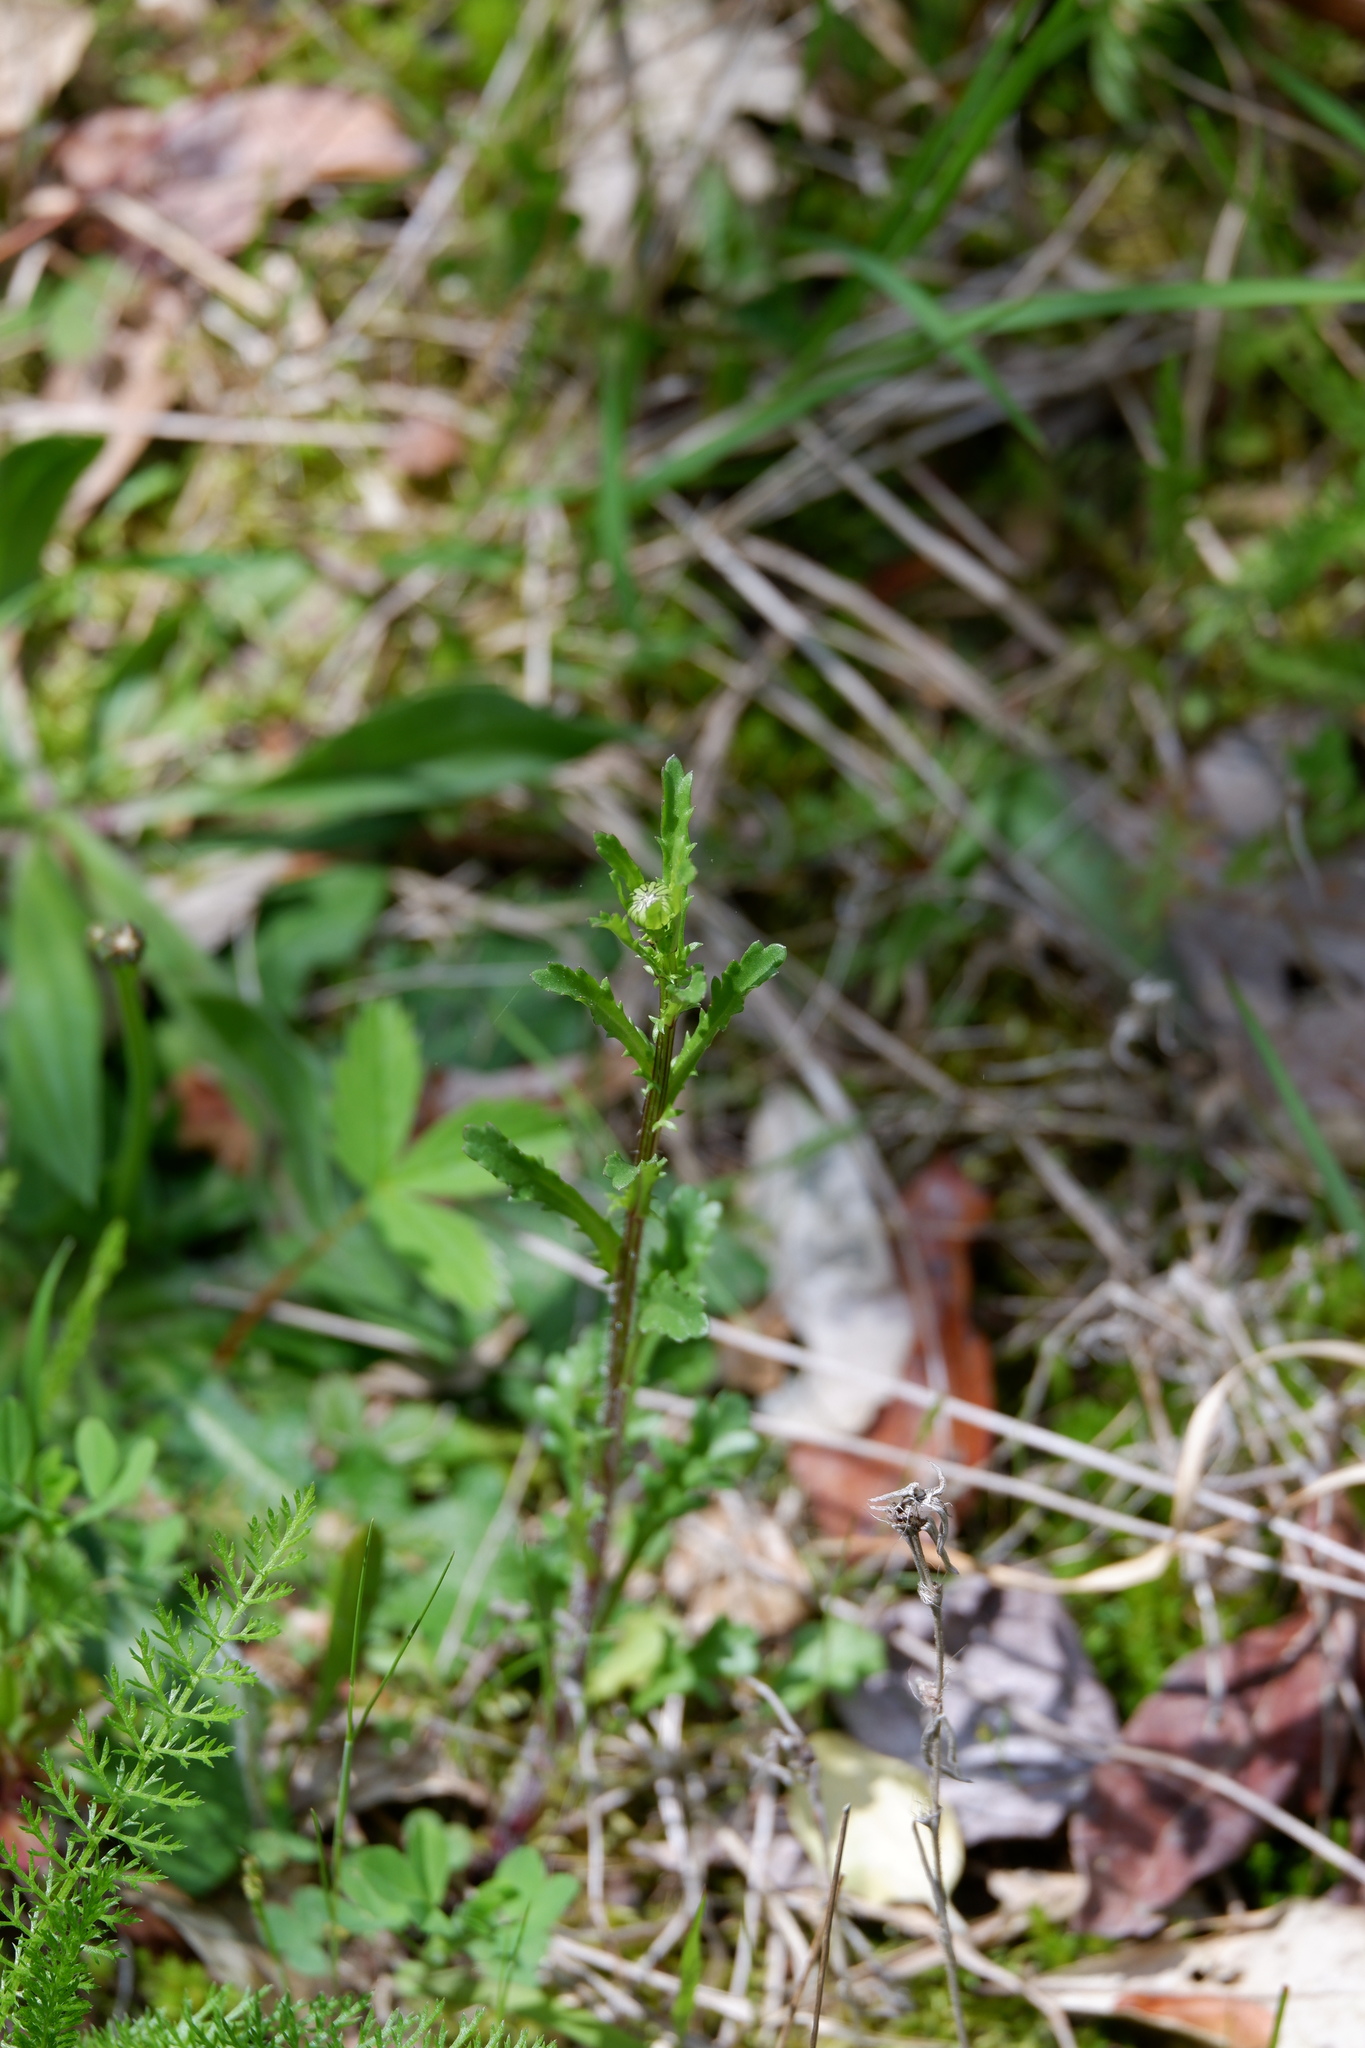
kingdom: Plantae
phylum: Tracheophyta
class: Magnoliopsida
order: Asterales
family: Asteraceae
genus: Leucanthemum
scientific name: Leucanthemum vulgare
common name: Oxeye daisy
